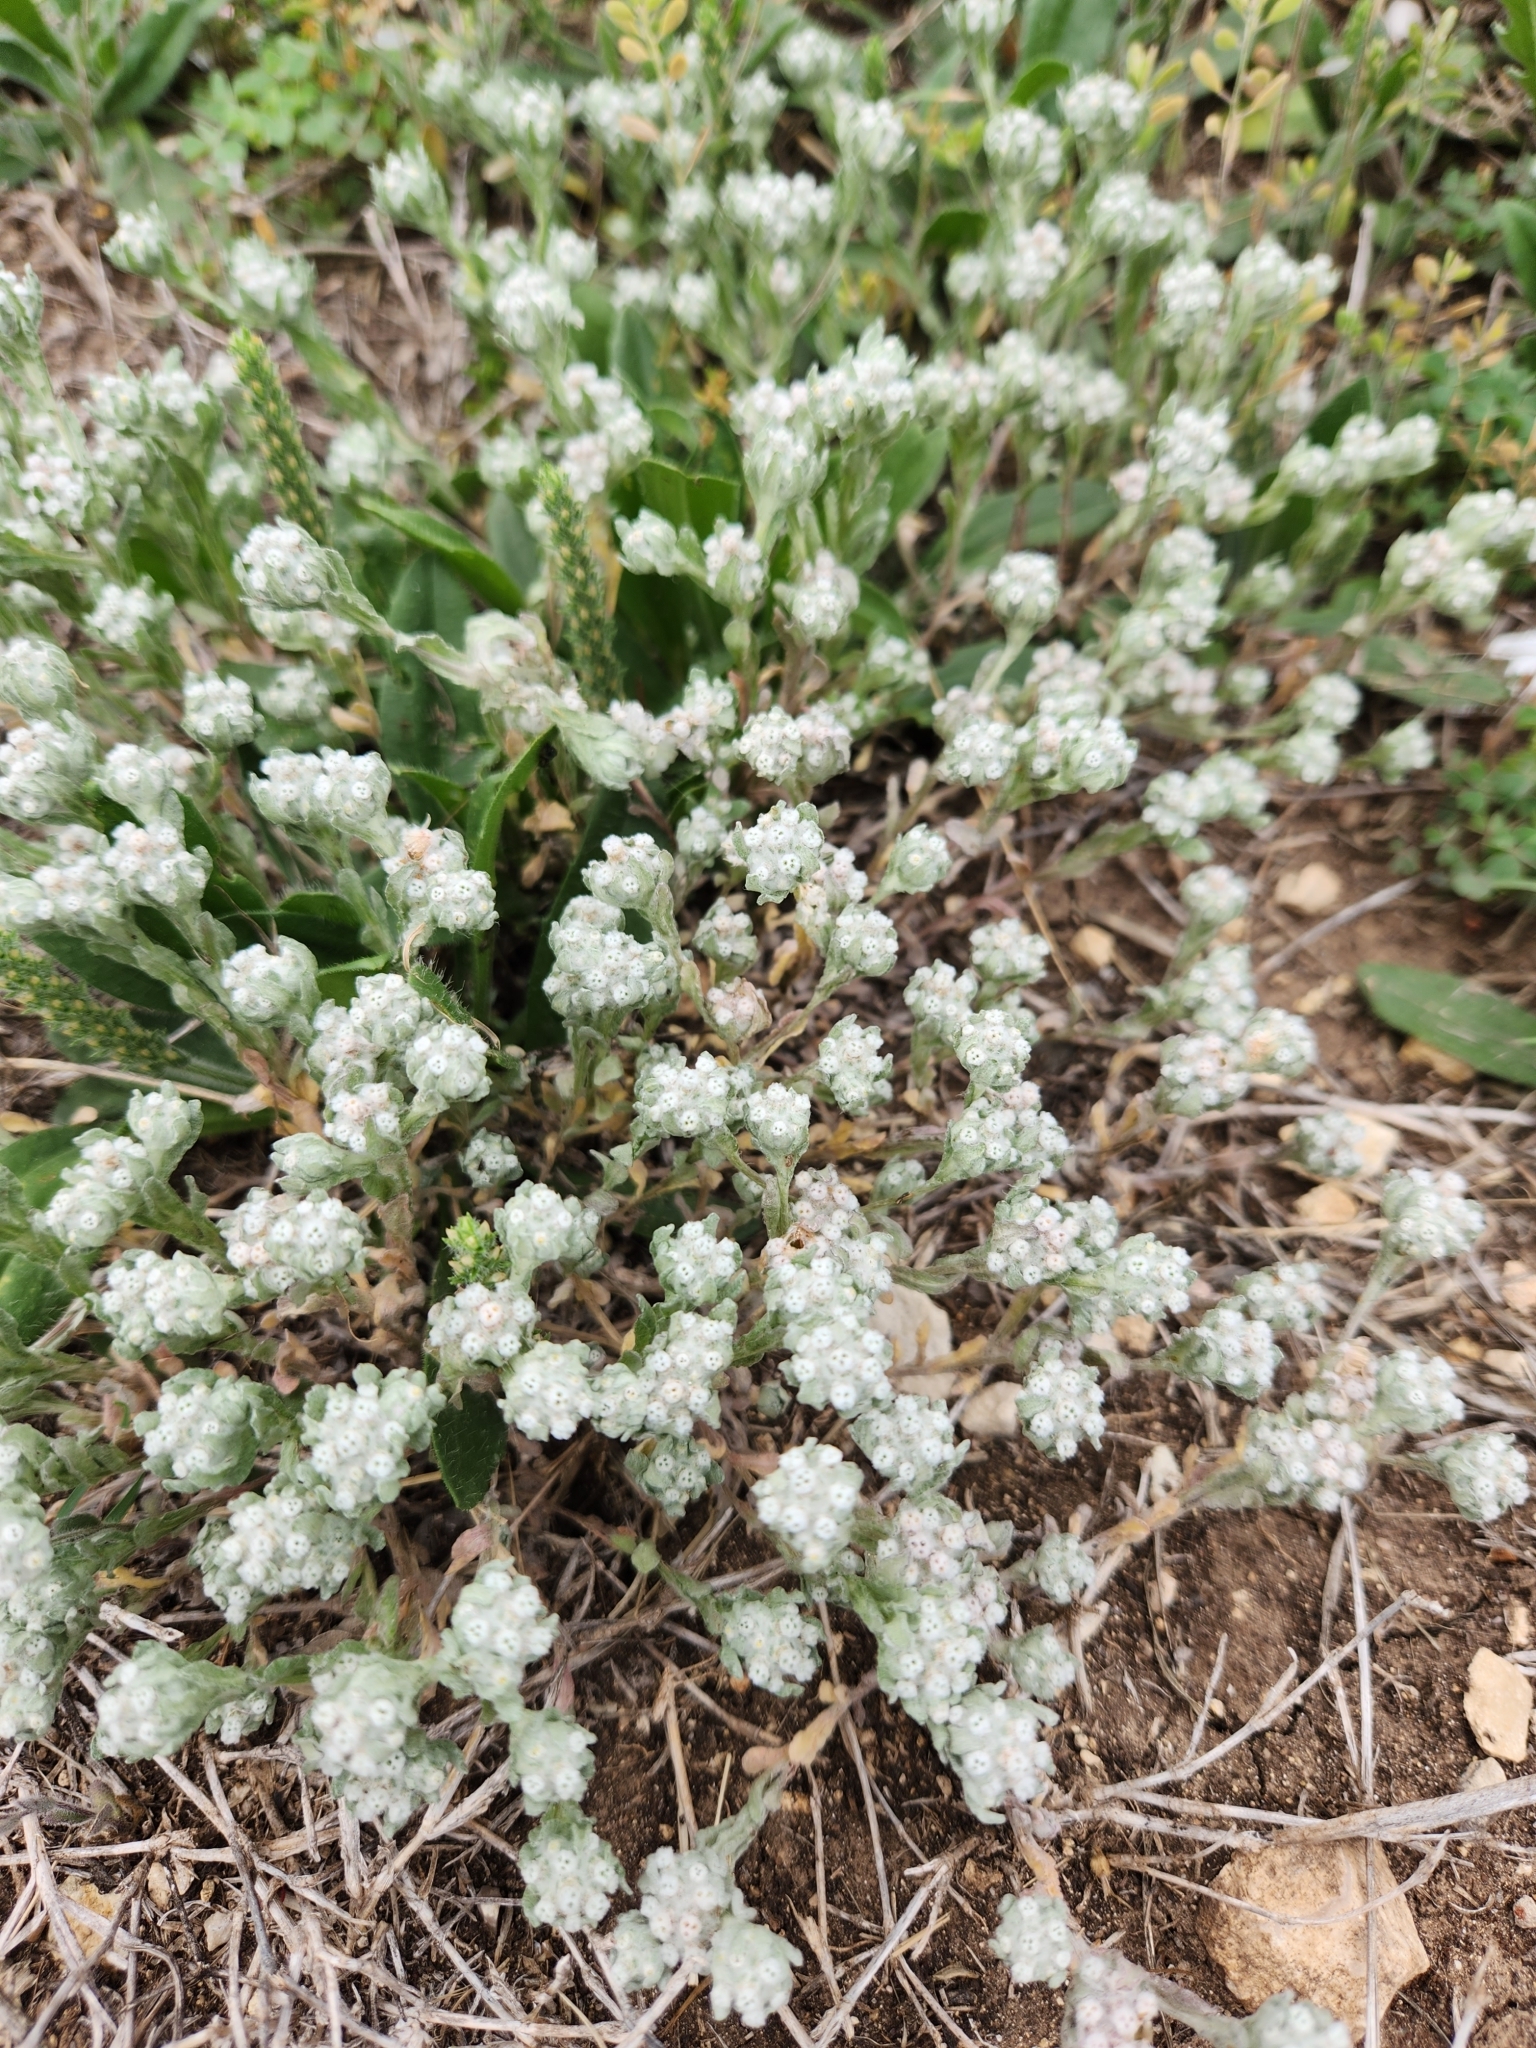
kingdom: Plantae
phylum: Tracheophyta
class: Magnoliopsida
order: Asterales
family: Asteraceae
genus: Diaperia
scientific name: Diaperia verna
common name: Many-stem rabbit-tobacco
